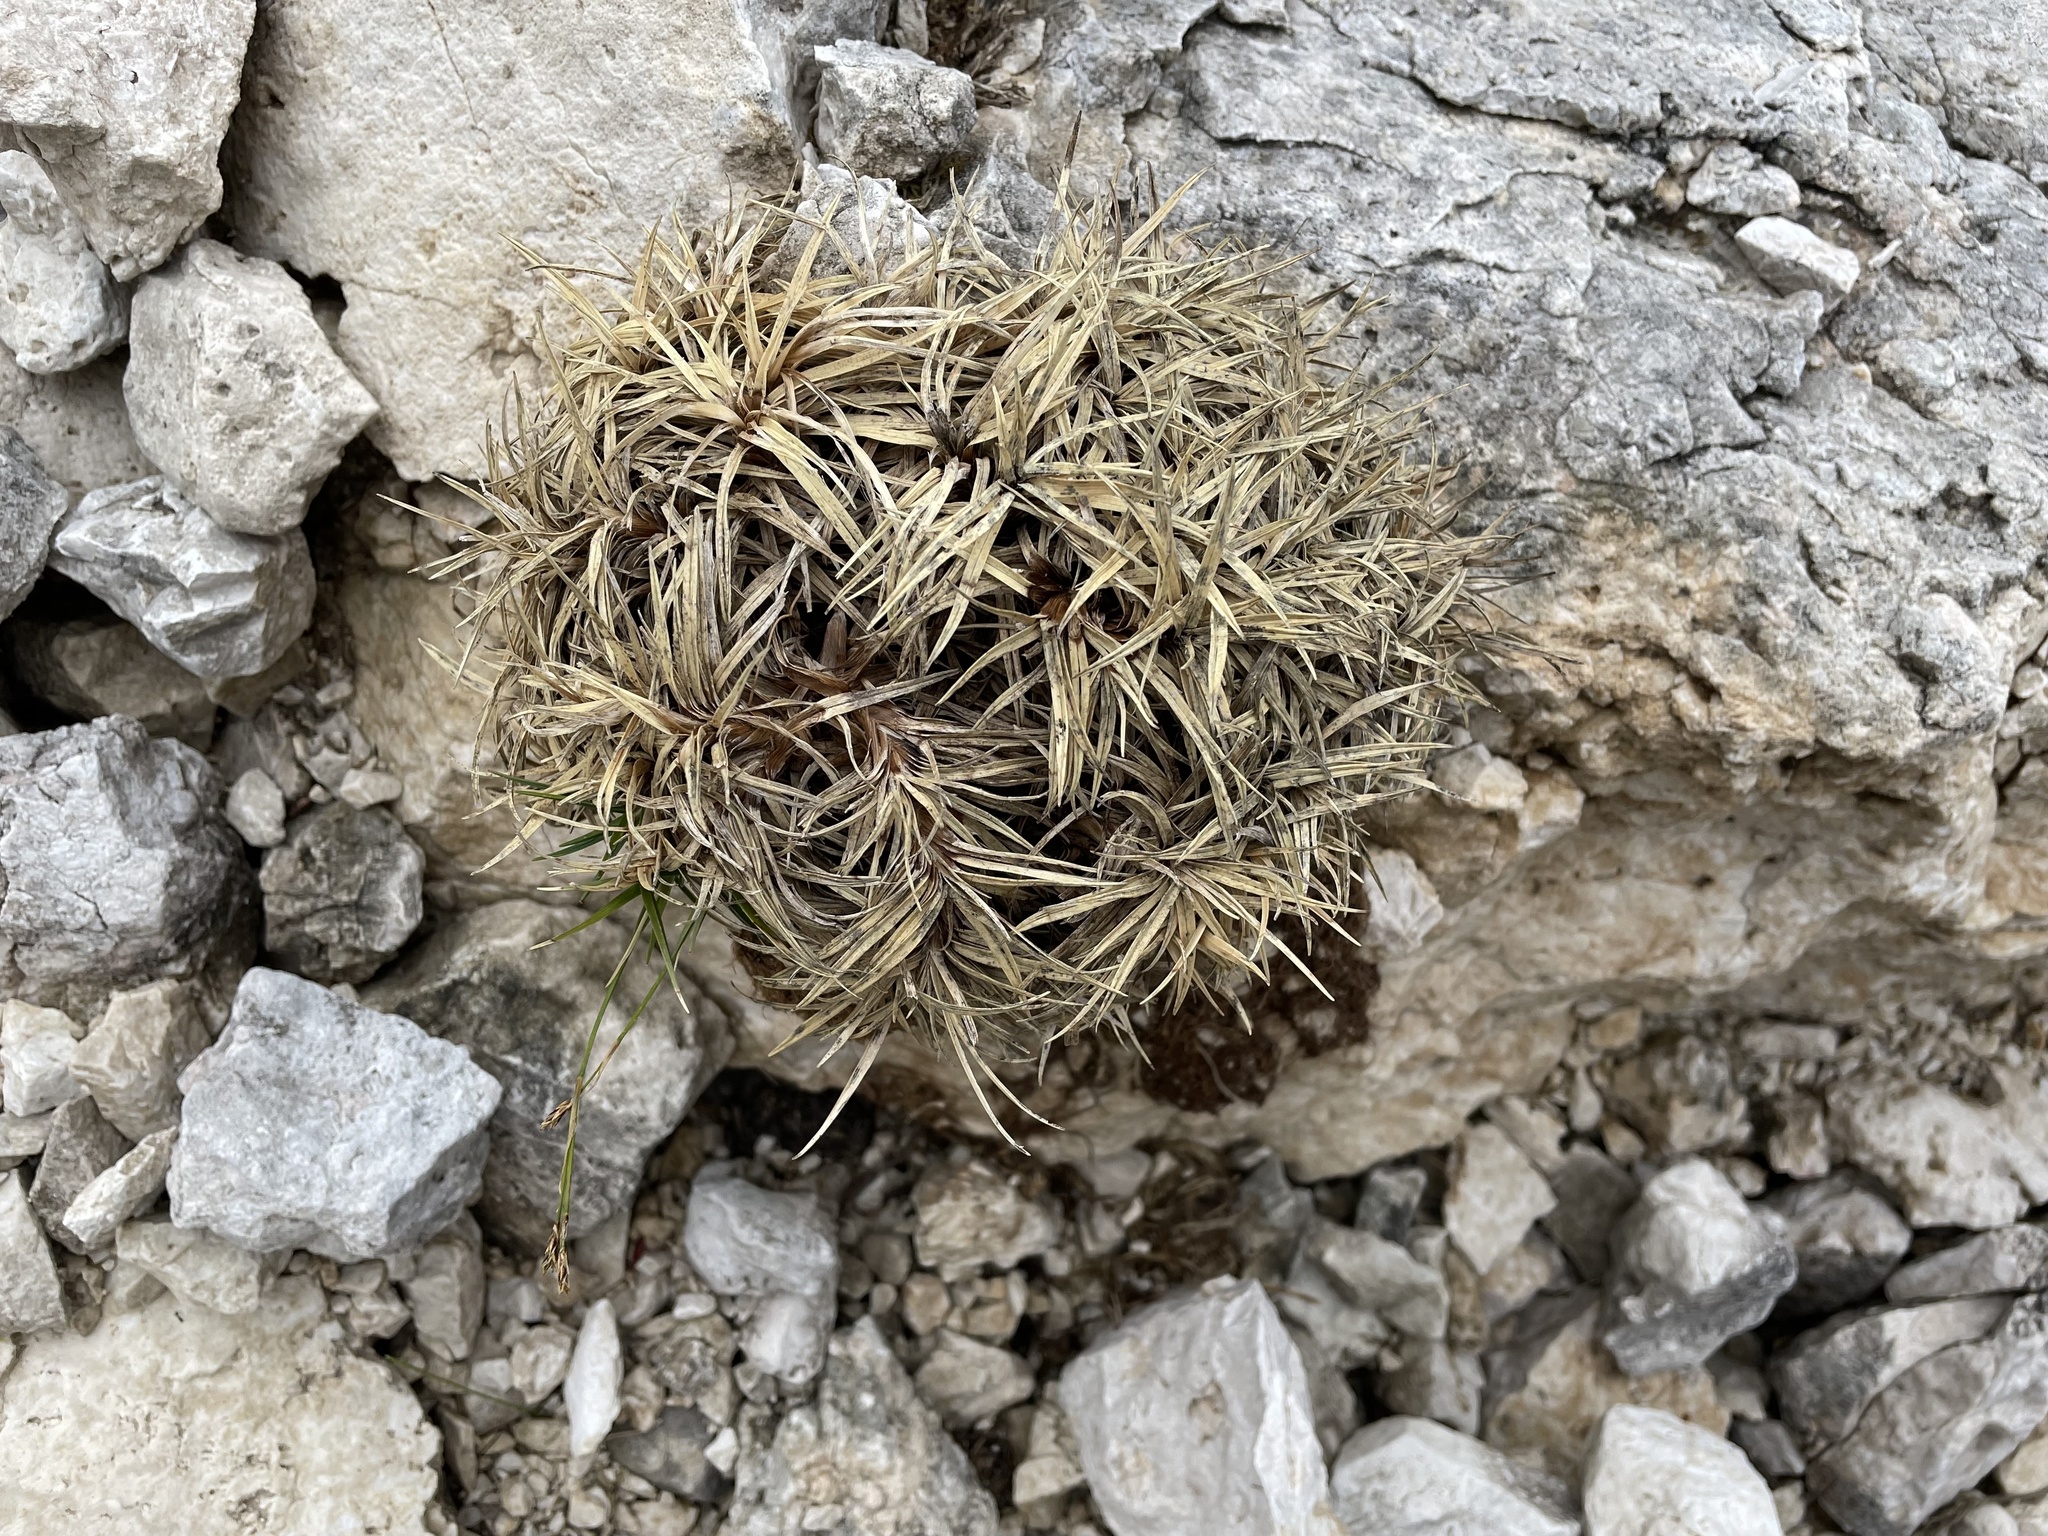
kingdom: Plantae
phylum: Tracheophyta
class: Liliopsida
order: Poales
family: Cyperaceae
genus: Carex
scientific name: Carex firma
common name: Dwarf pillow sedge
